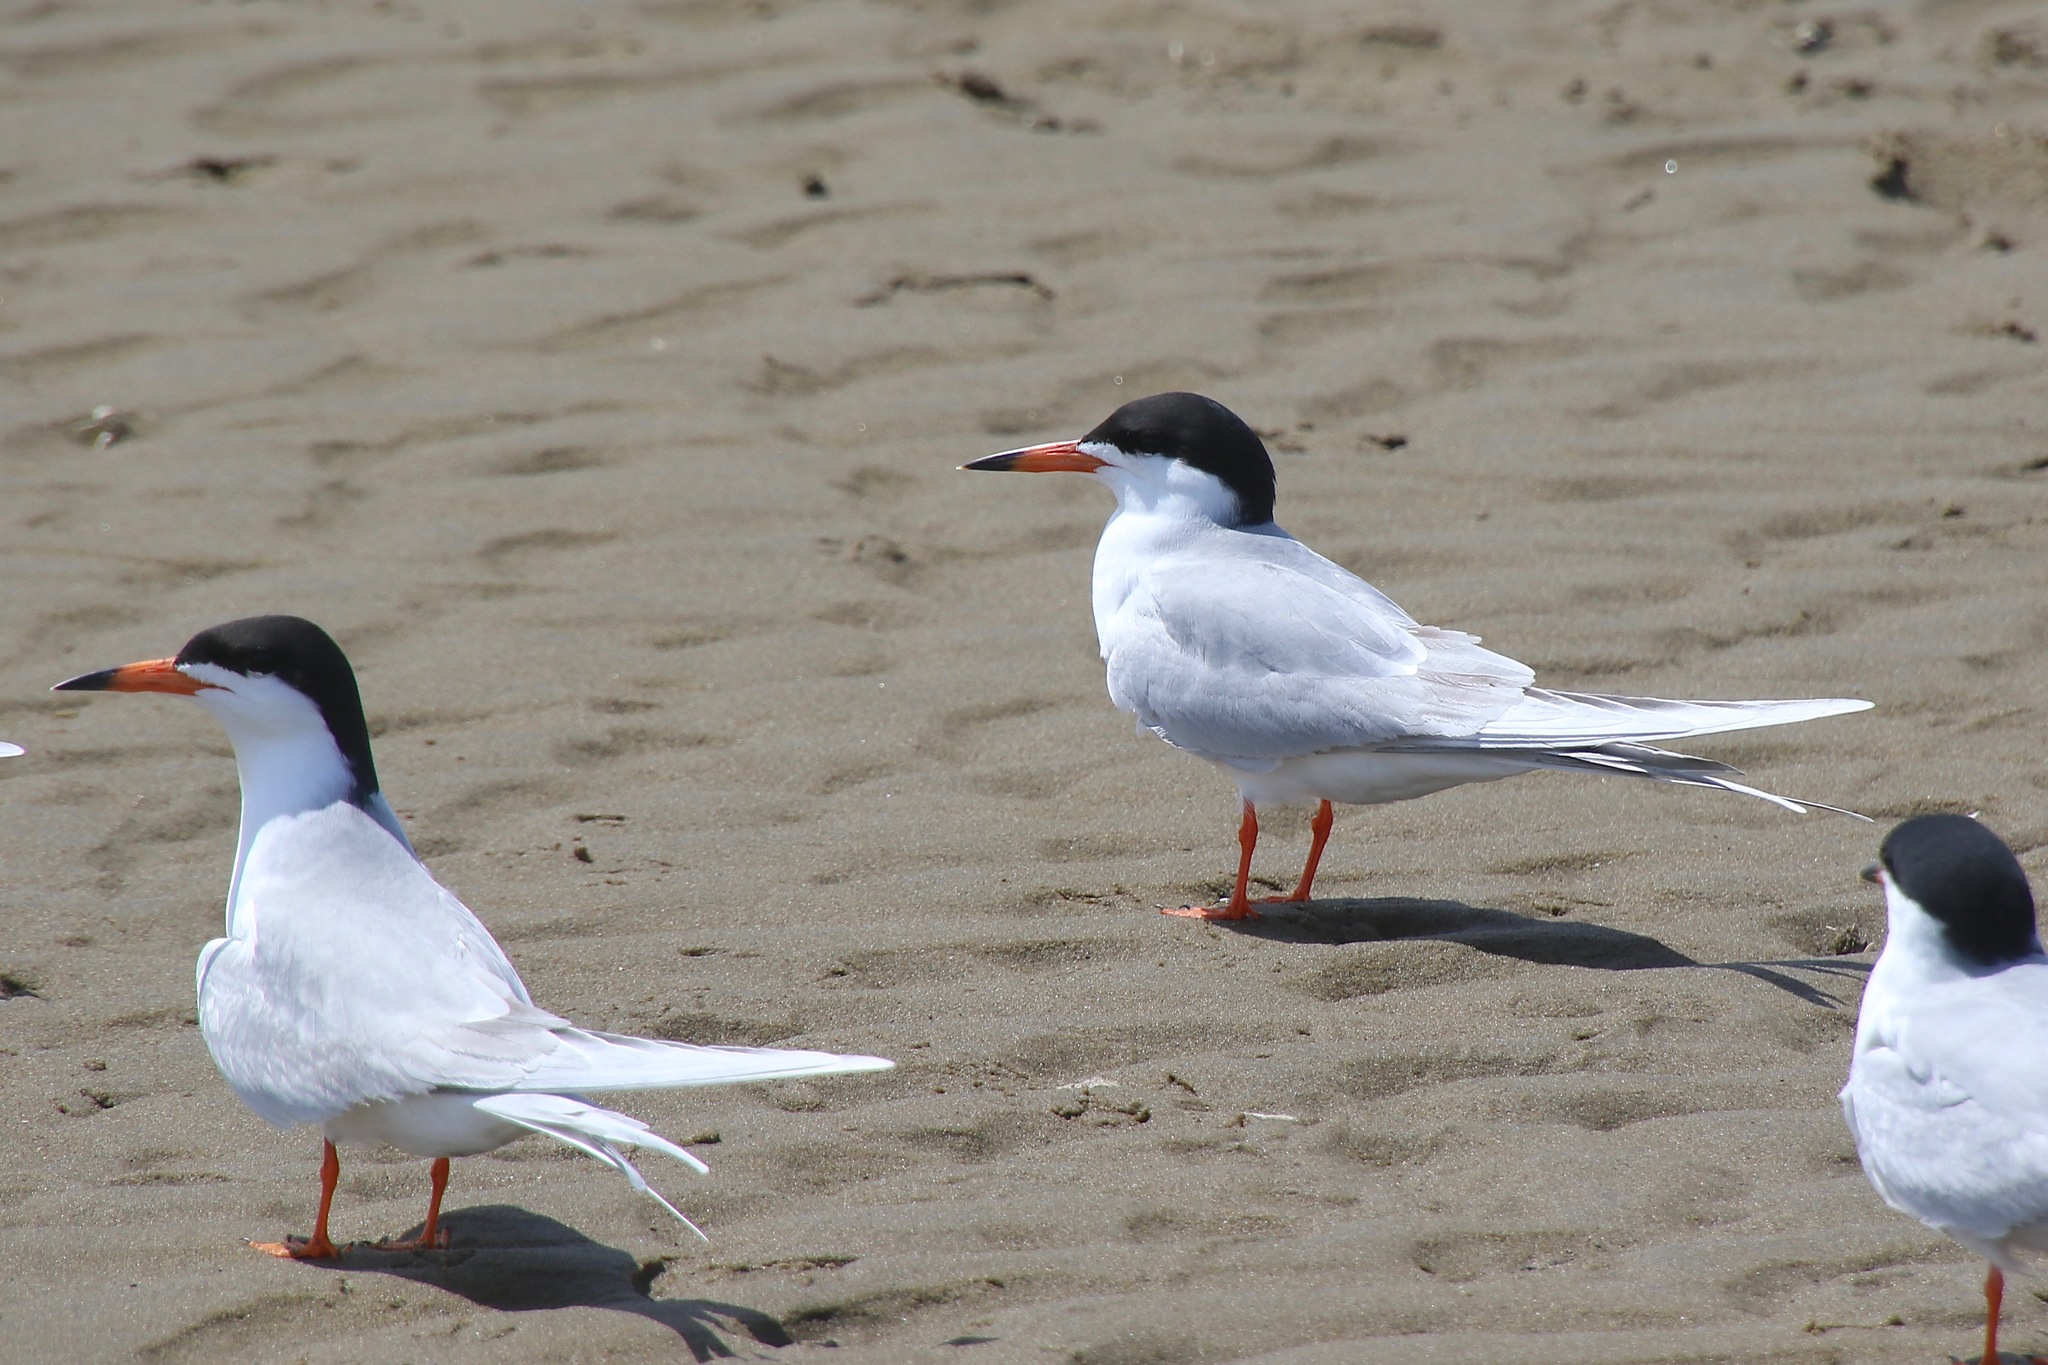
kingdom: Animalia
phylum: Chordata
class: Aves
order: Charadriiformes
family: Laridae
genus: Sterna
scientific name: Sterna forsteri
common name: Forster's tern
